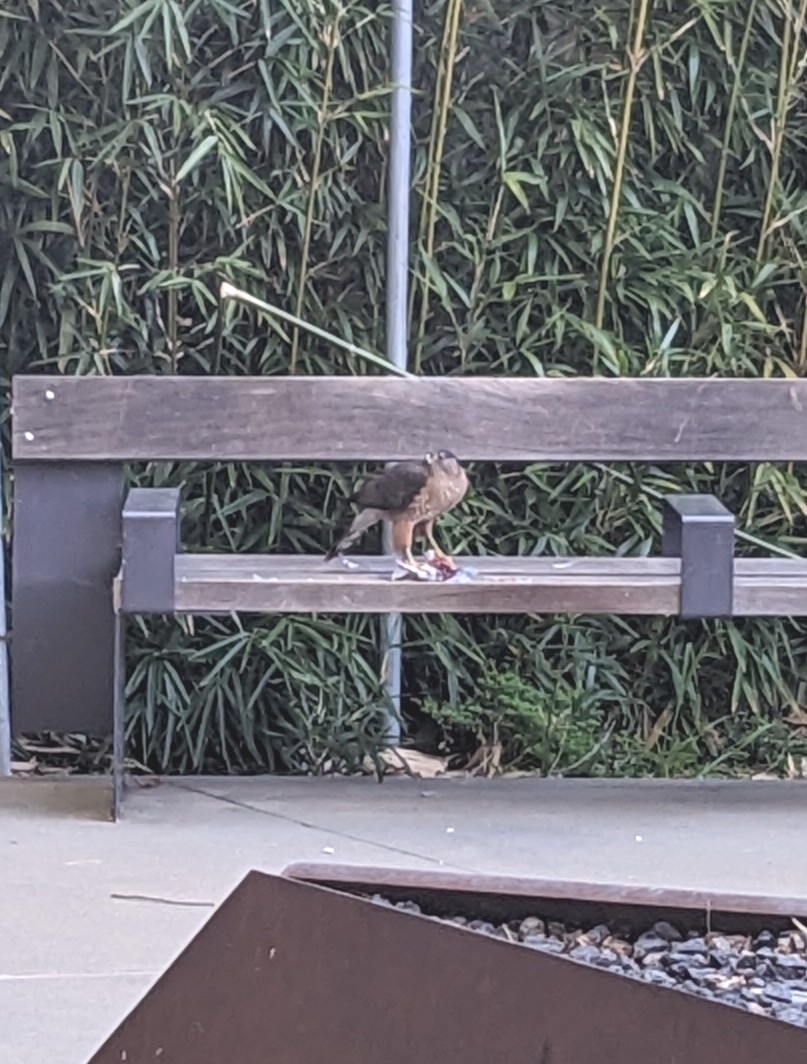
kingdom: Animalia
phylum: Chordata
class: Aves
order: Accipitriformes
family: Accipitridae
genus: Accipiter
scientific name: Accipiter cooperii
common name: Cooper's hawk
